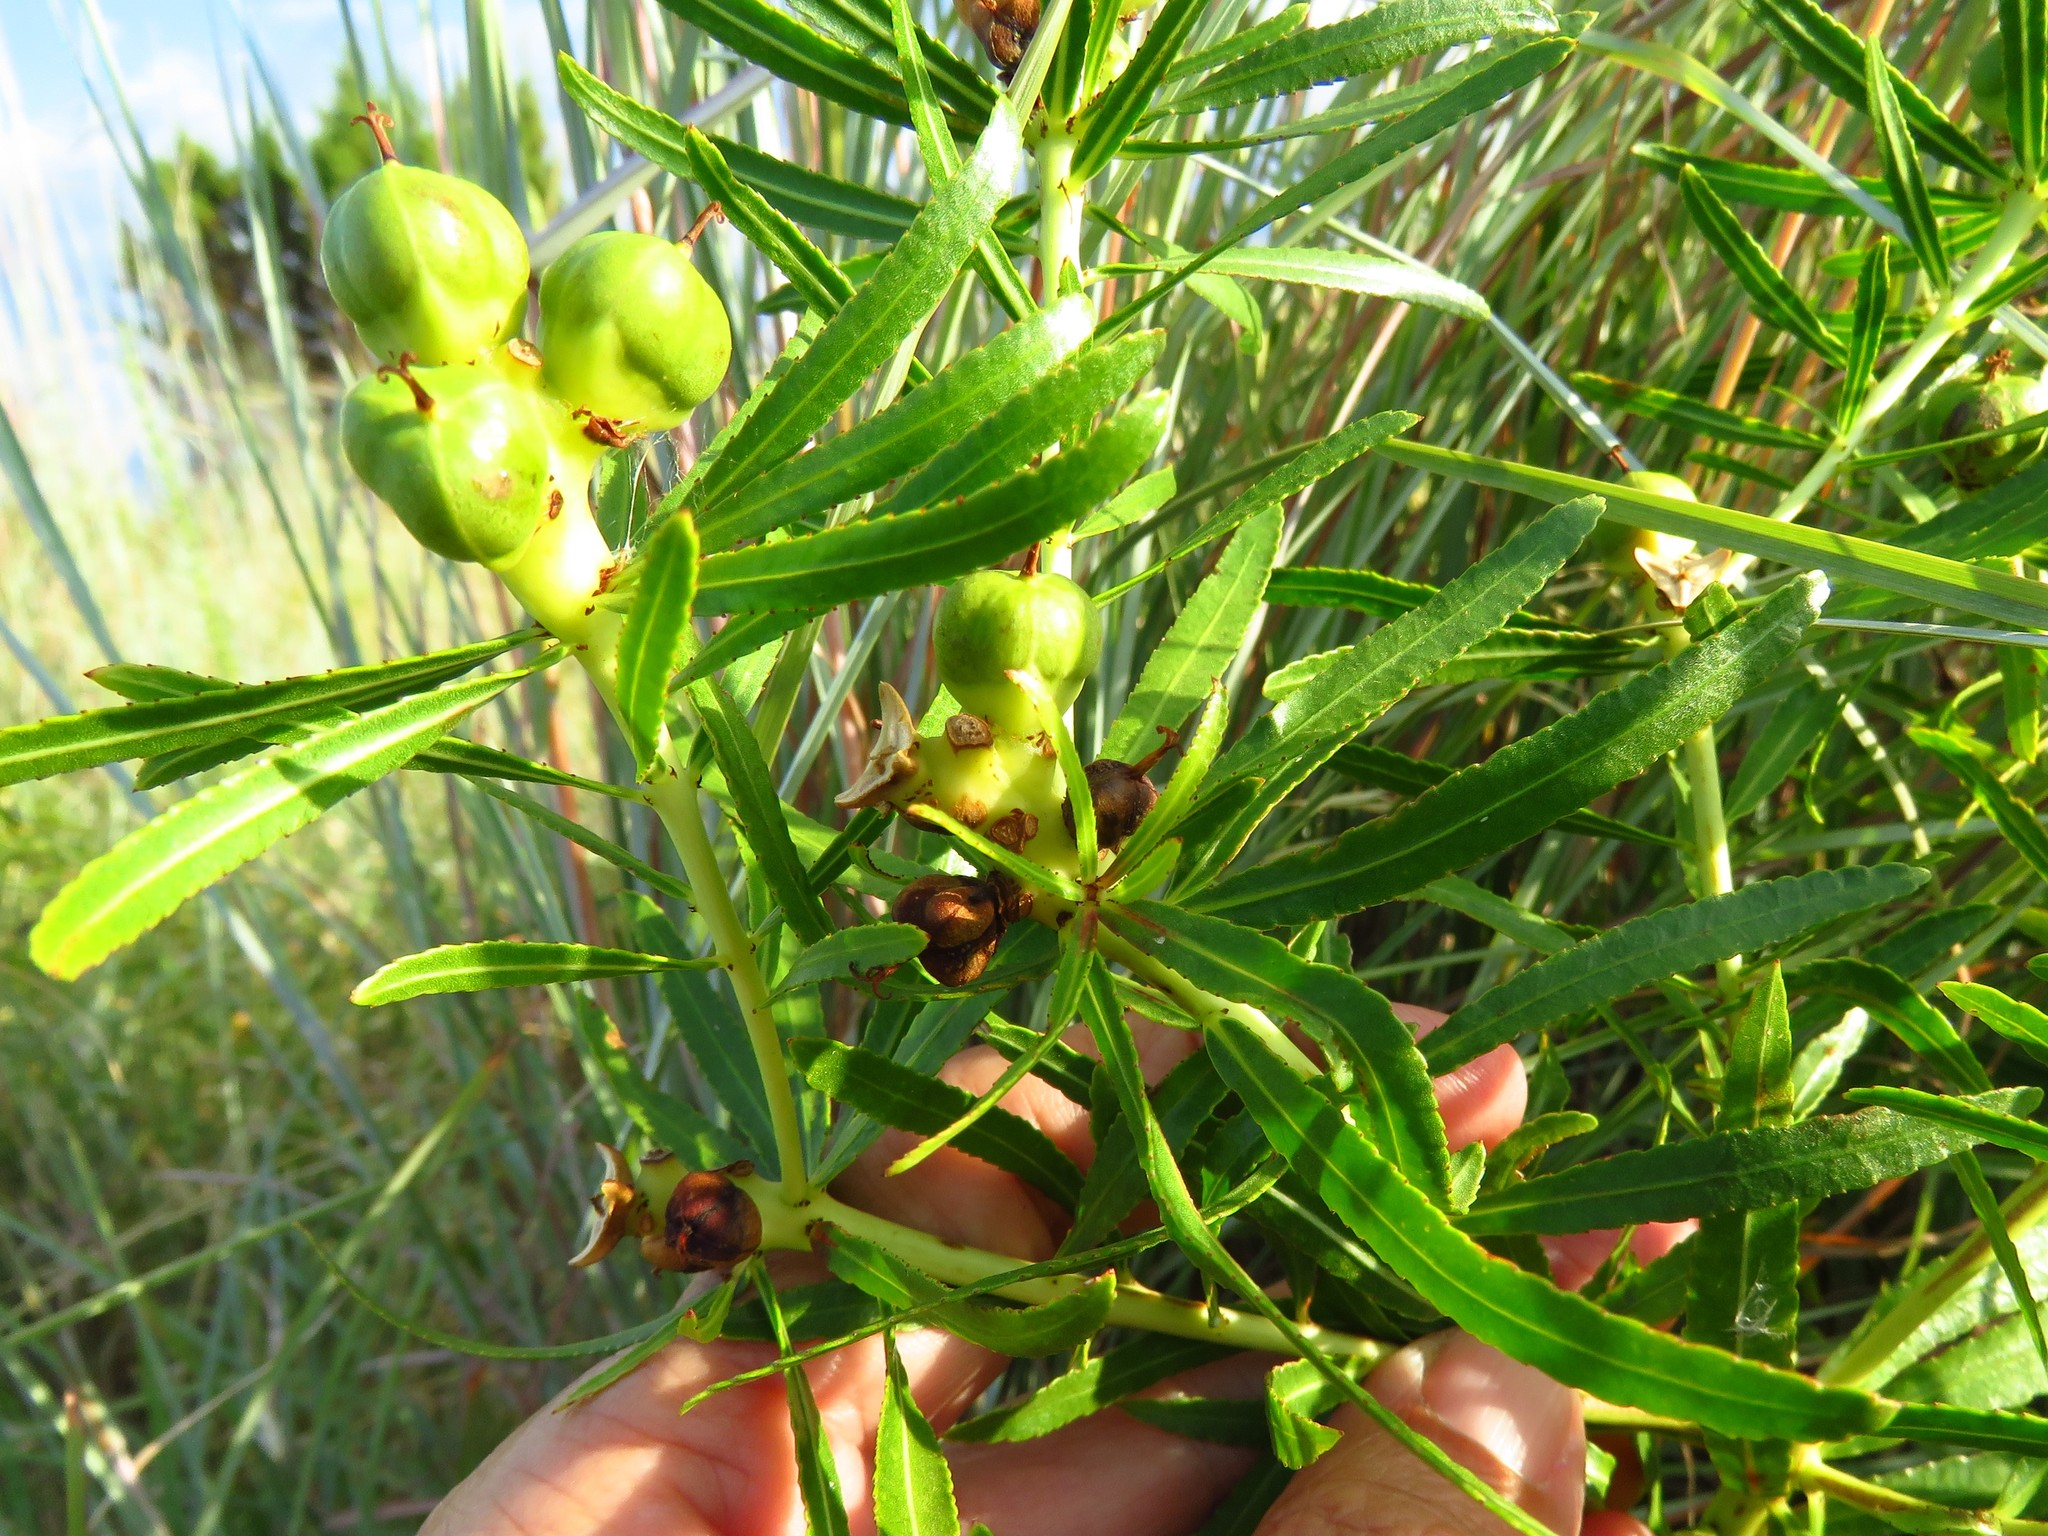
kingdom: Plantae
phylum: Tracheophyta
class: Magnoliopsida
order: Malpighiales
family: Euphorbiaceae
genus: Stillingia
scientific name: Stillingia texana
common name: Texas stillingia
